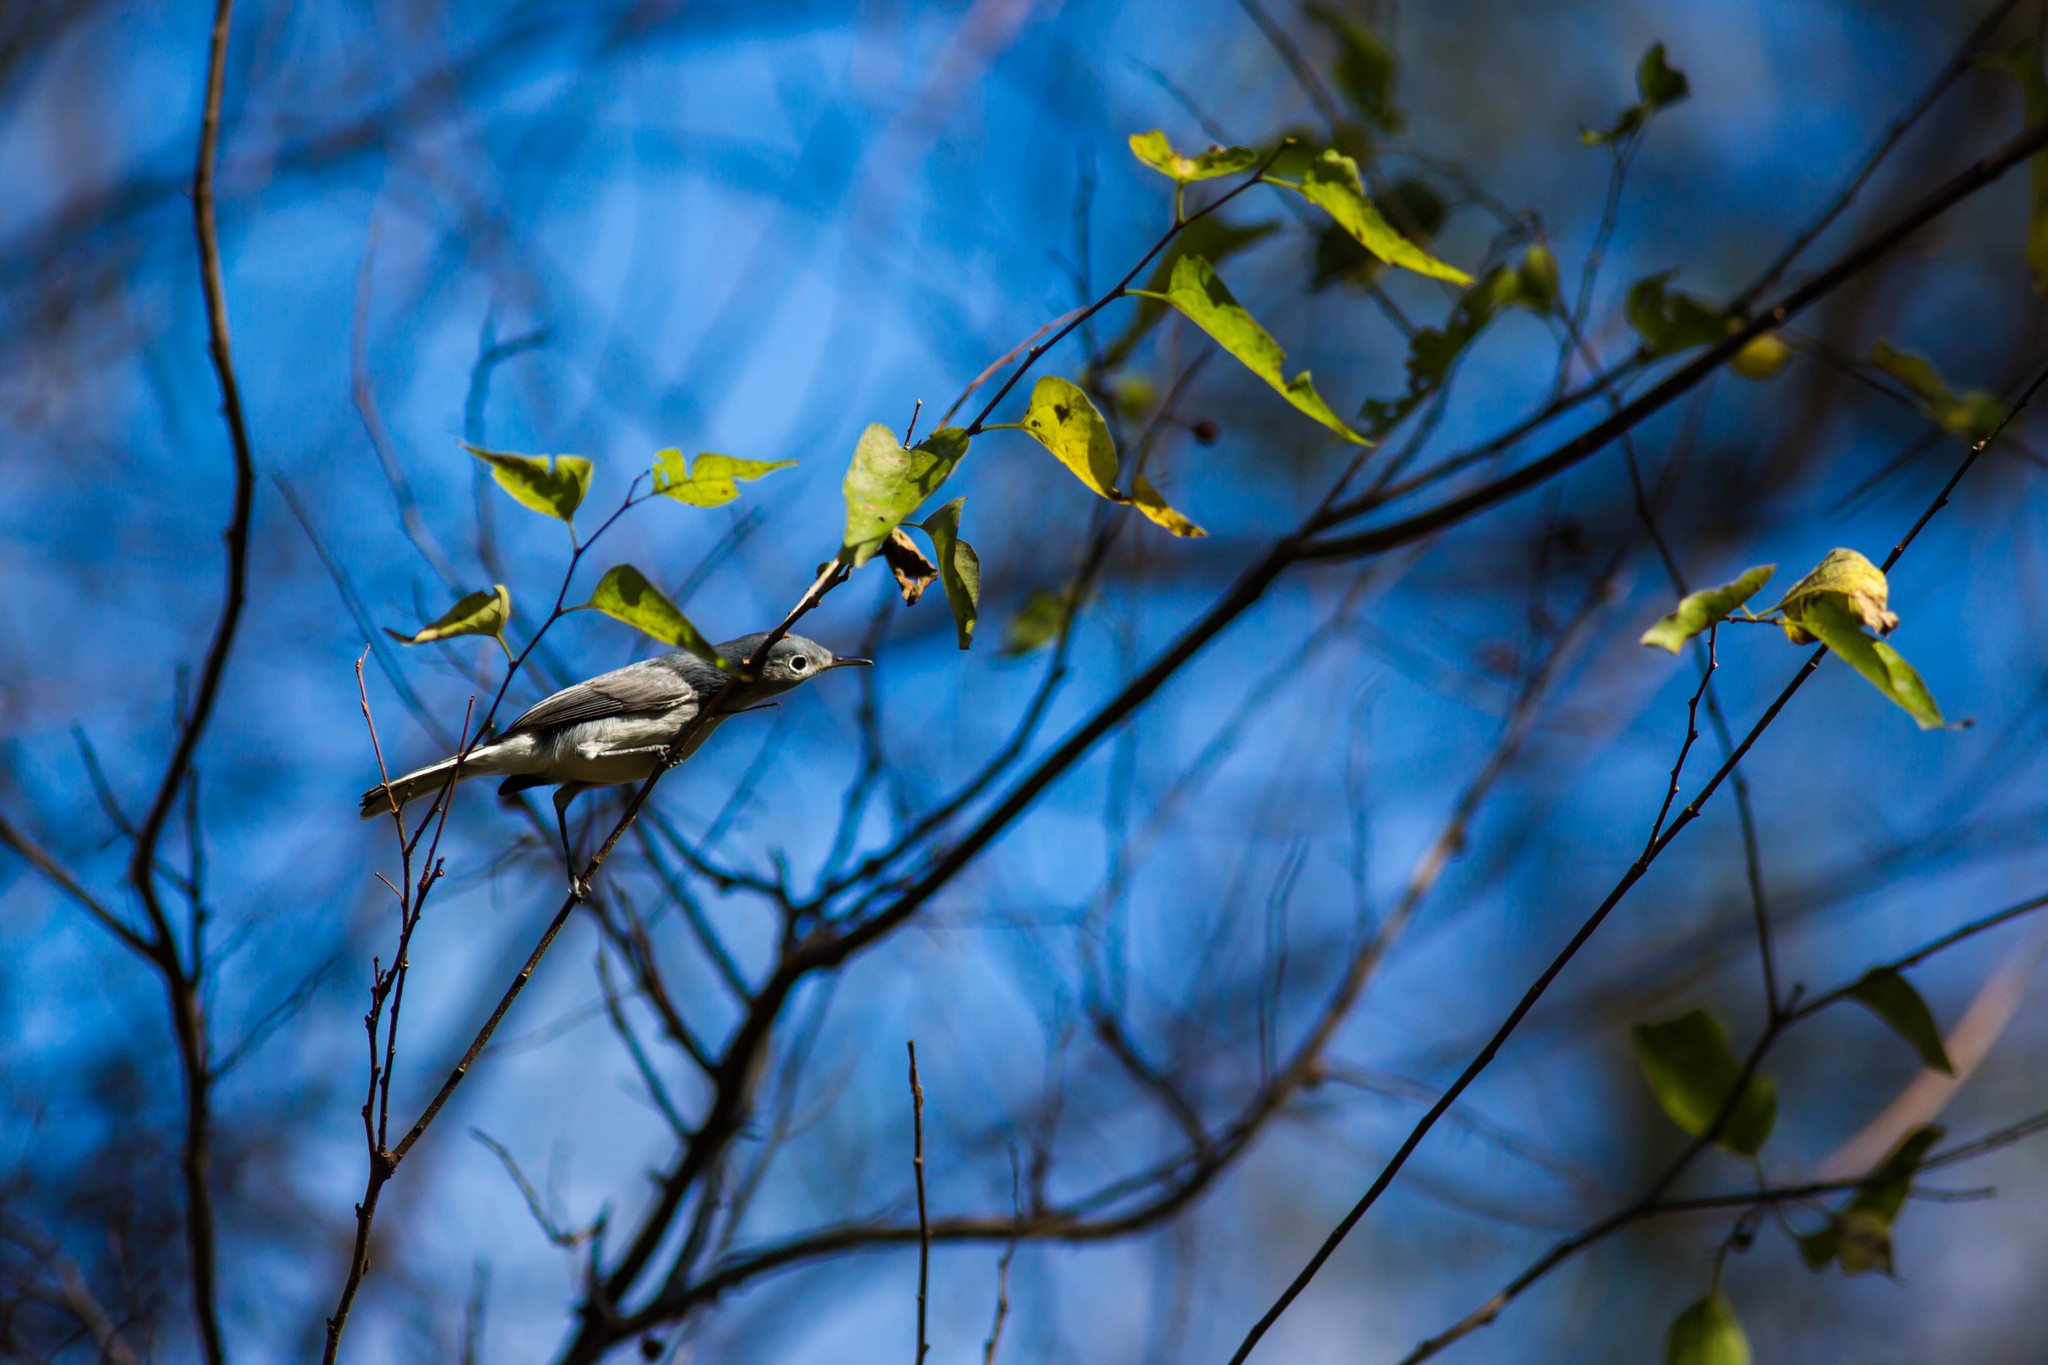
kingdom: Animalia
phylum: Chordata
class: Aves
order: Passeriformes
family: Polioptilidae
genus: Polioptila
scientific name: Polioptila caerulea
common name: Blue-gray gnatcatcher
